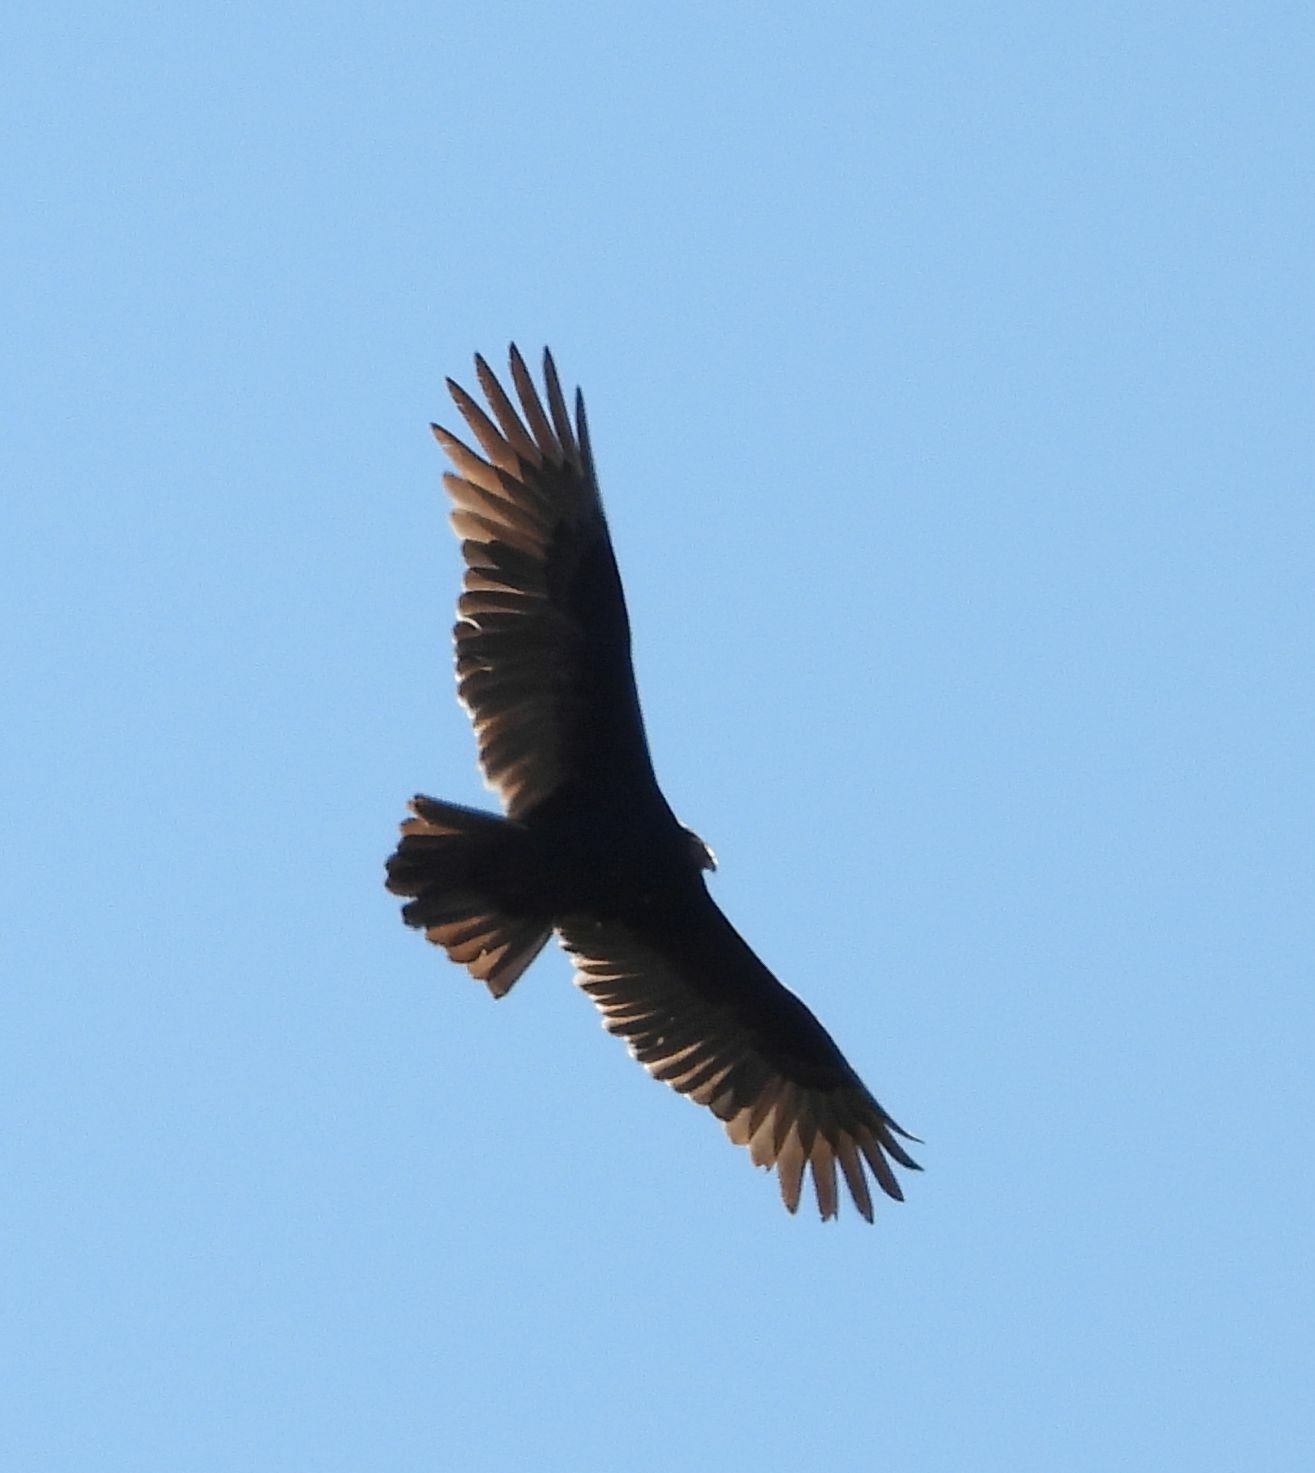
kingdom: Animalia
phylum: Chordata
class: Aves
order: Accipitriformes
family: Cathartidae
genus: Cathartes
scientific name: Cathartes aura
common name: Turkey vulture
